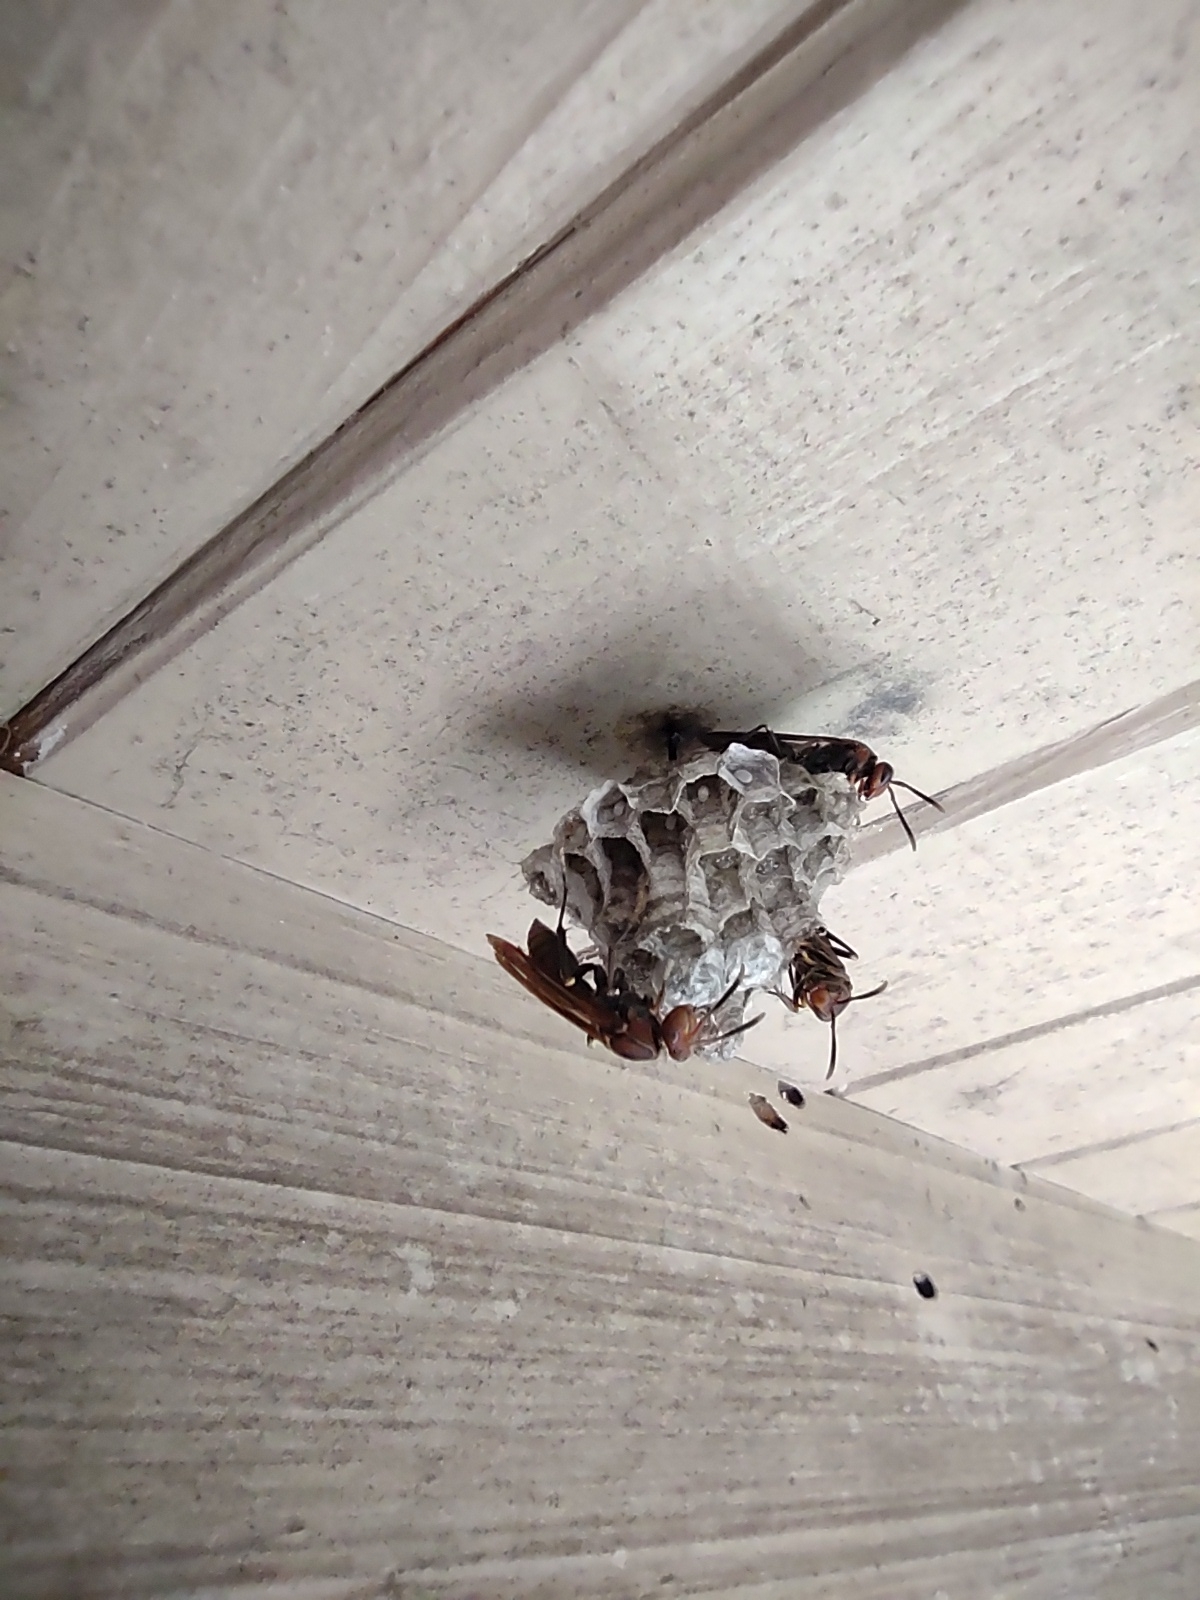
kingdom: Animalia
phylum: Arthropoda
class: Insecta
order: Hymenoptera
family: Pompilidae
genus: Aphanilopterus
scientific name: Aphanilopterus
